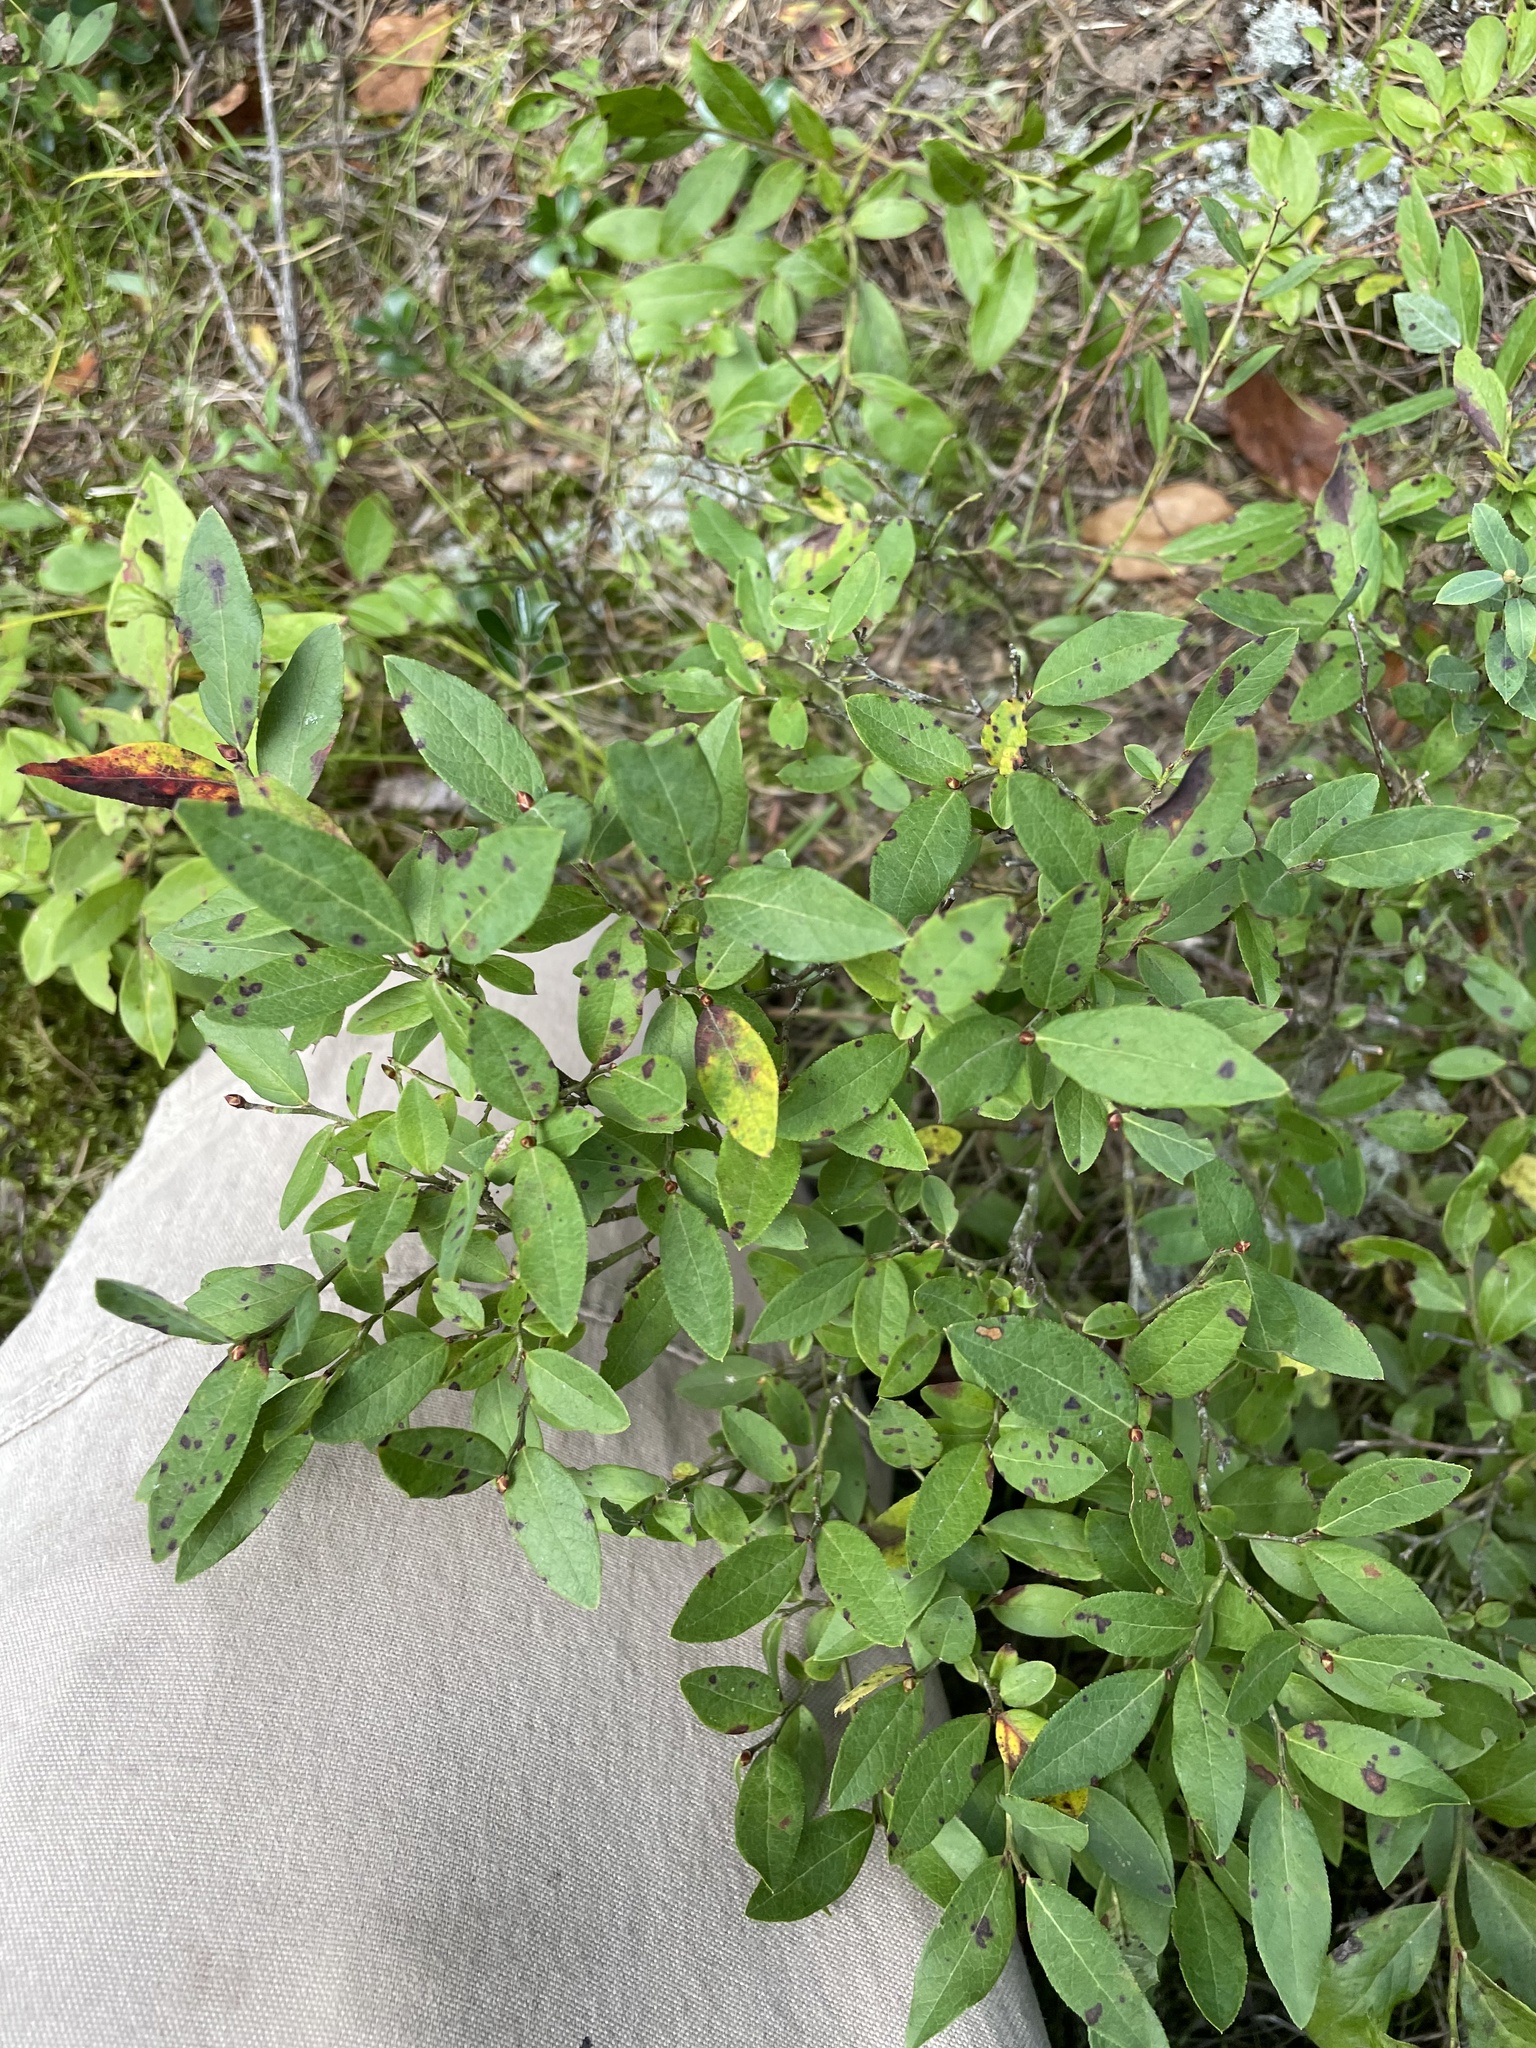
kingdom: Plantae
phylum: Tracheophyta
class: Magnoliopsida
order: Ericales
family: Ericaceae
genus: Vaccinium
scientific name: Vaccinium angustifolium
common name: Early lowbush blueberry
